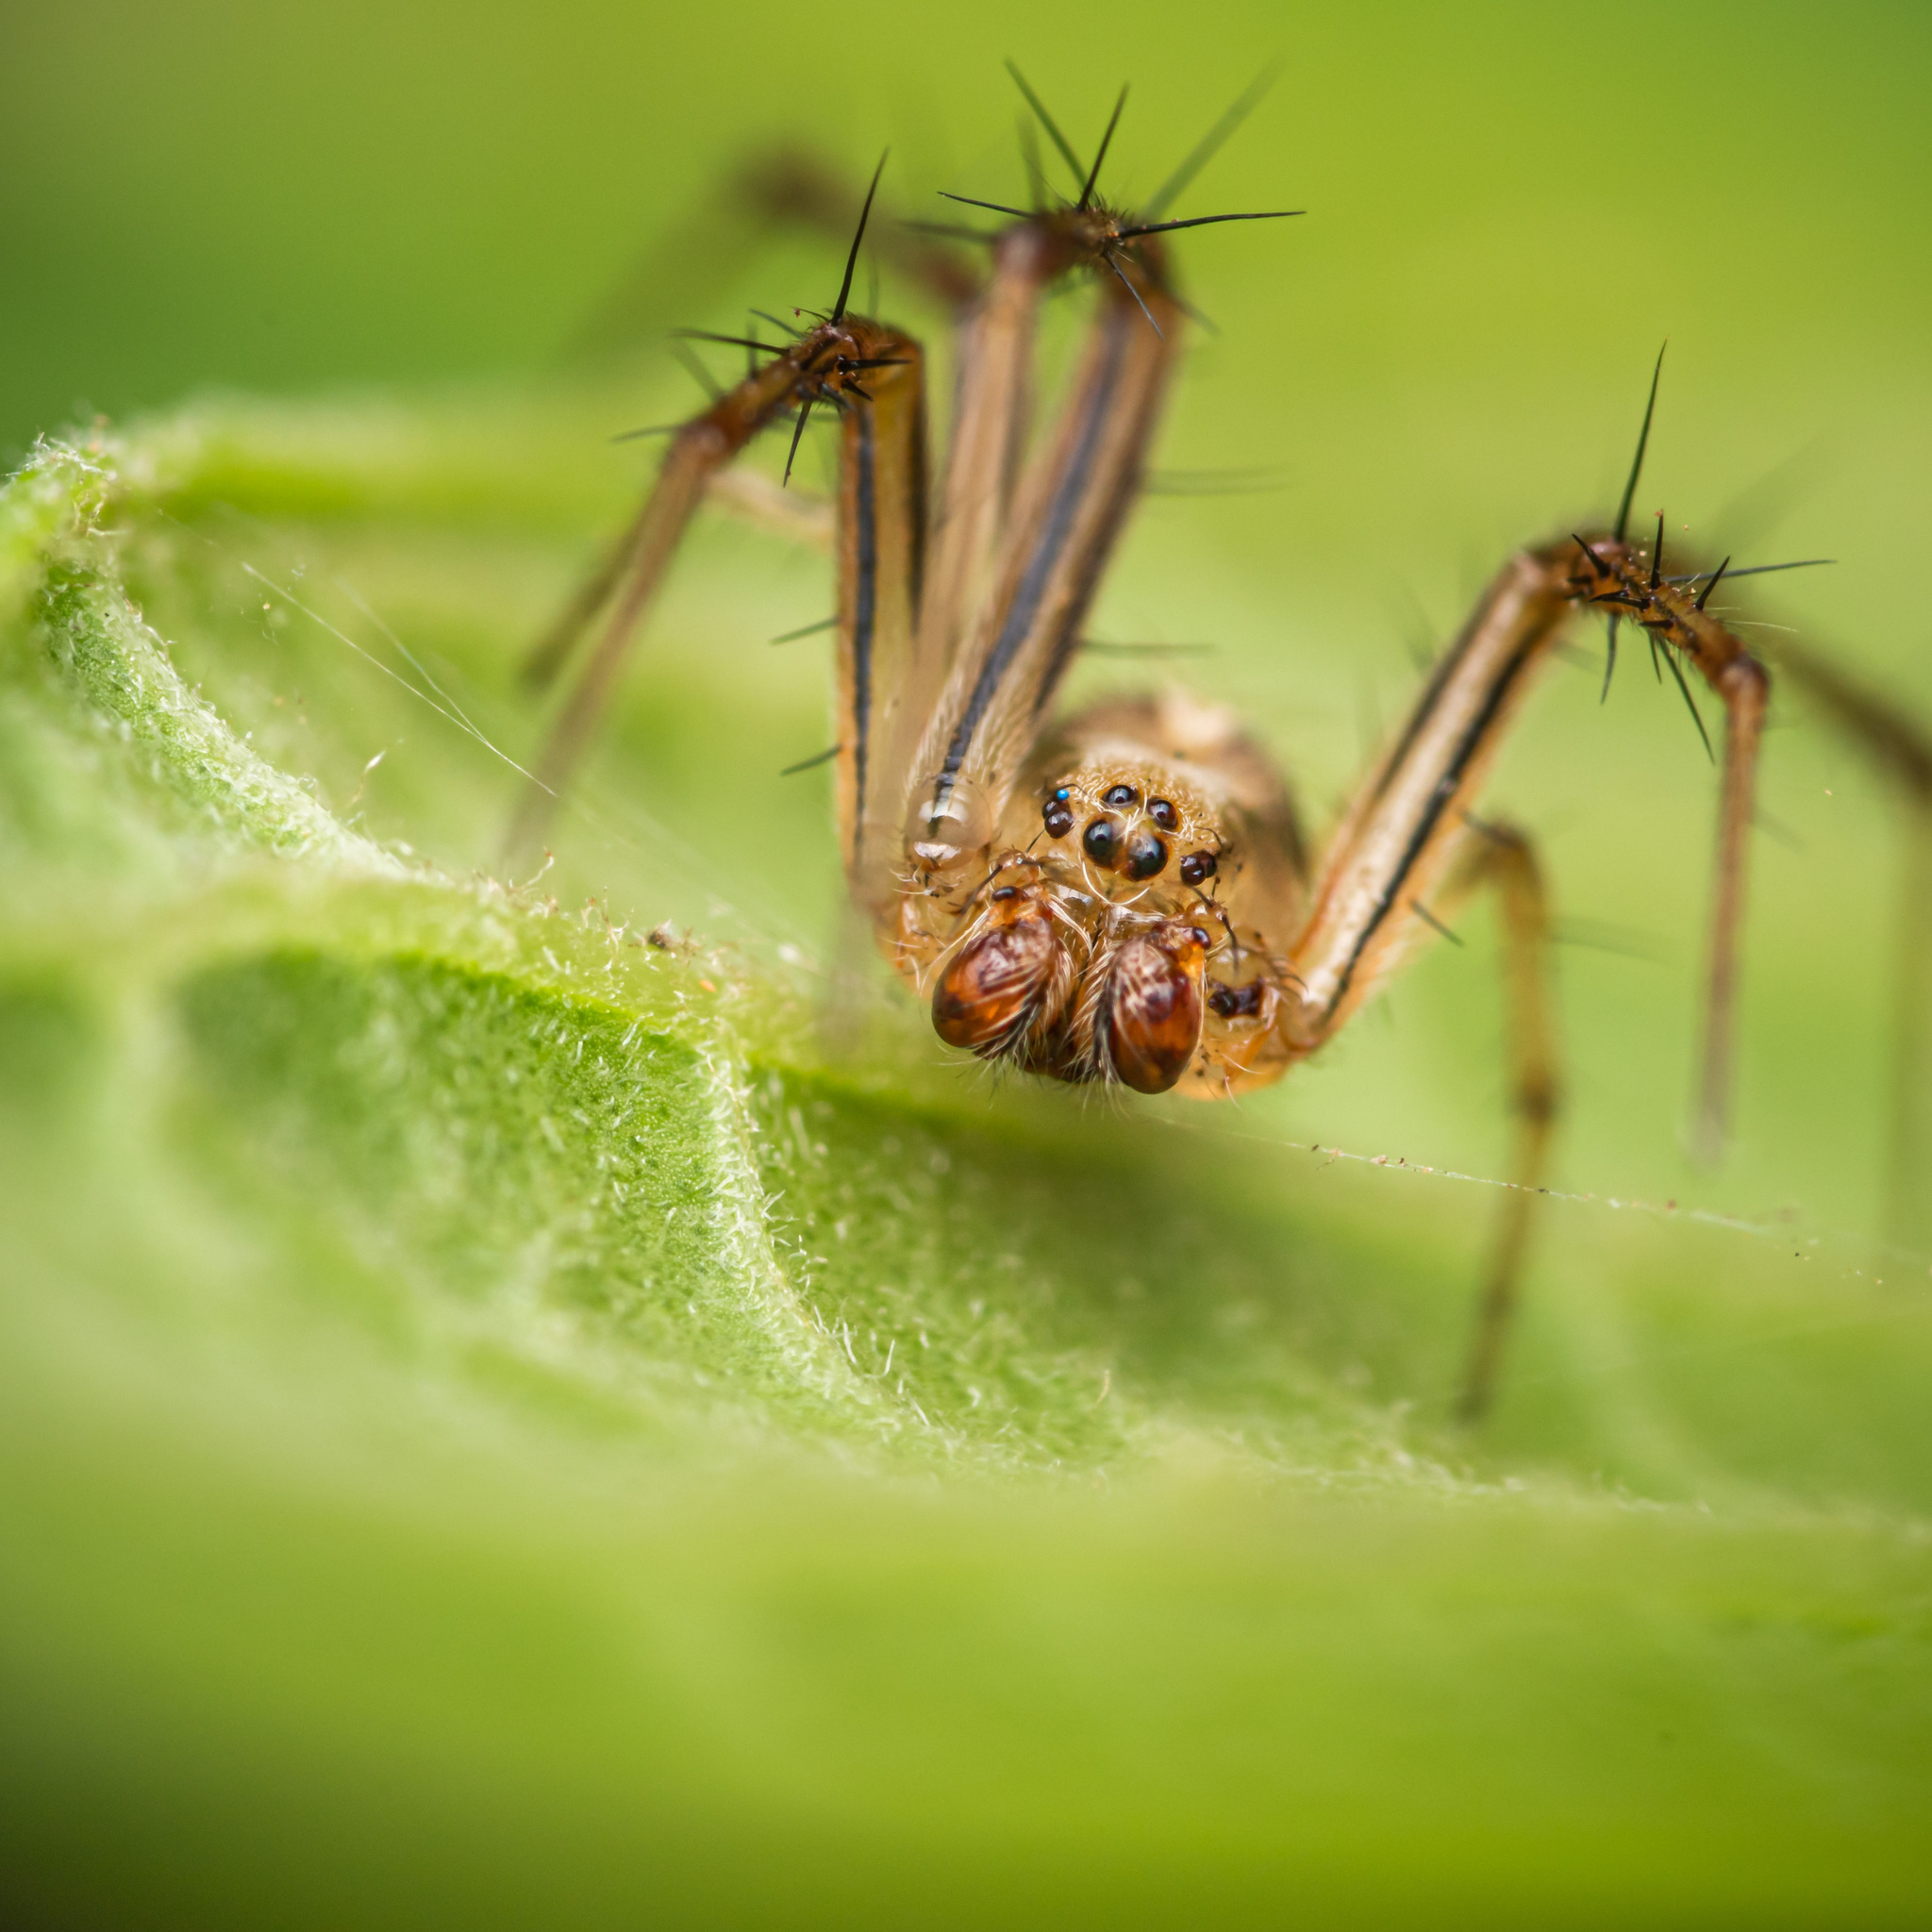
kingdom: Animalia
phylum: Arthropoda
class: Arachnida
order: Araneae
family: Araneidae
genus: Neoscona
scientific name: Neoscona molemensis
